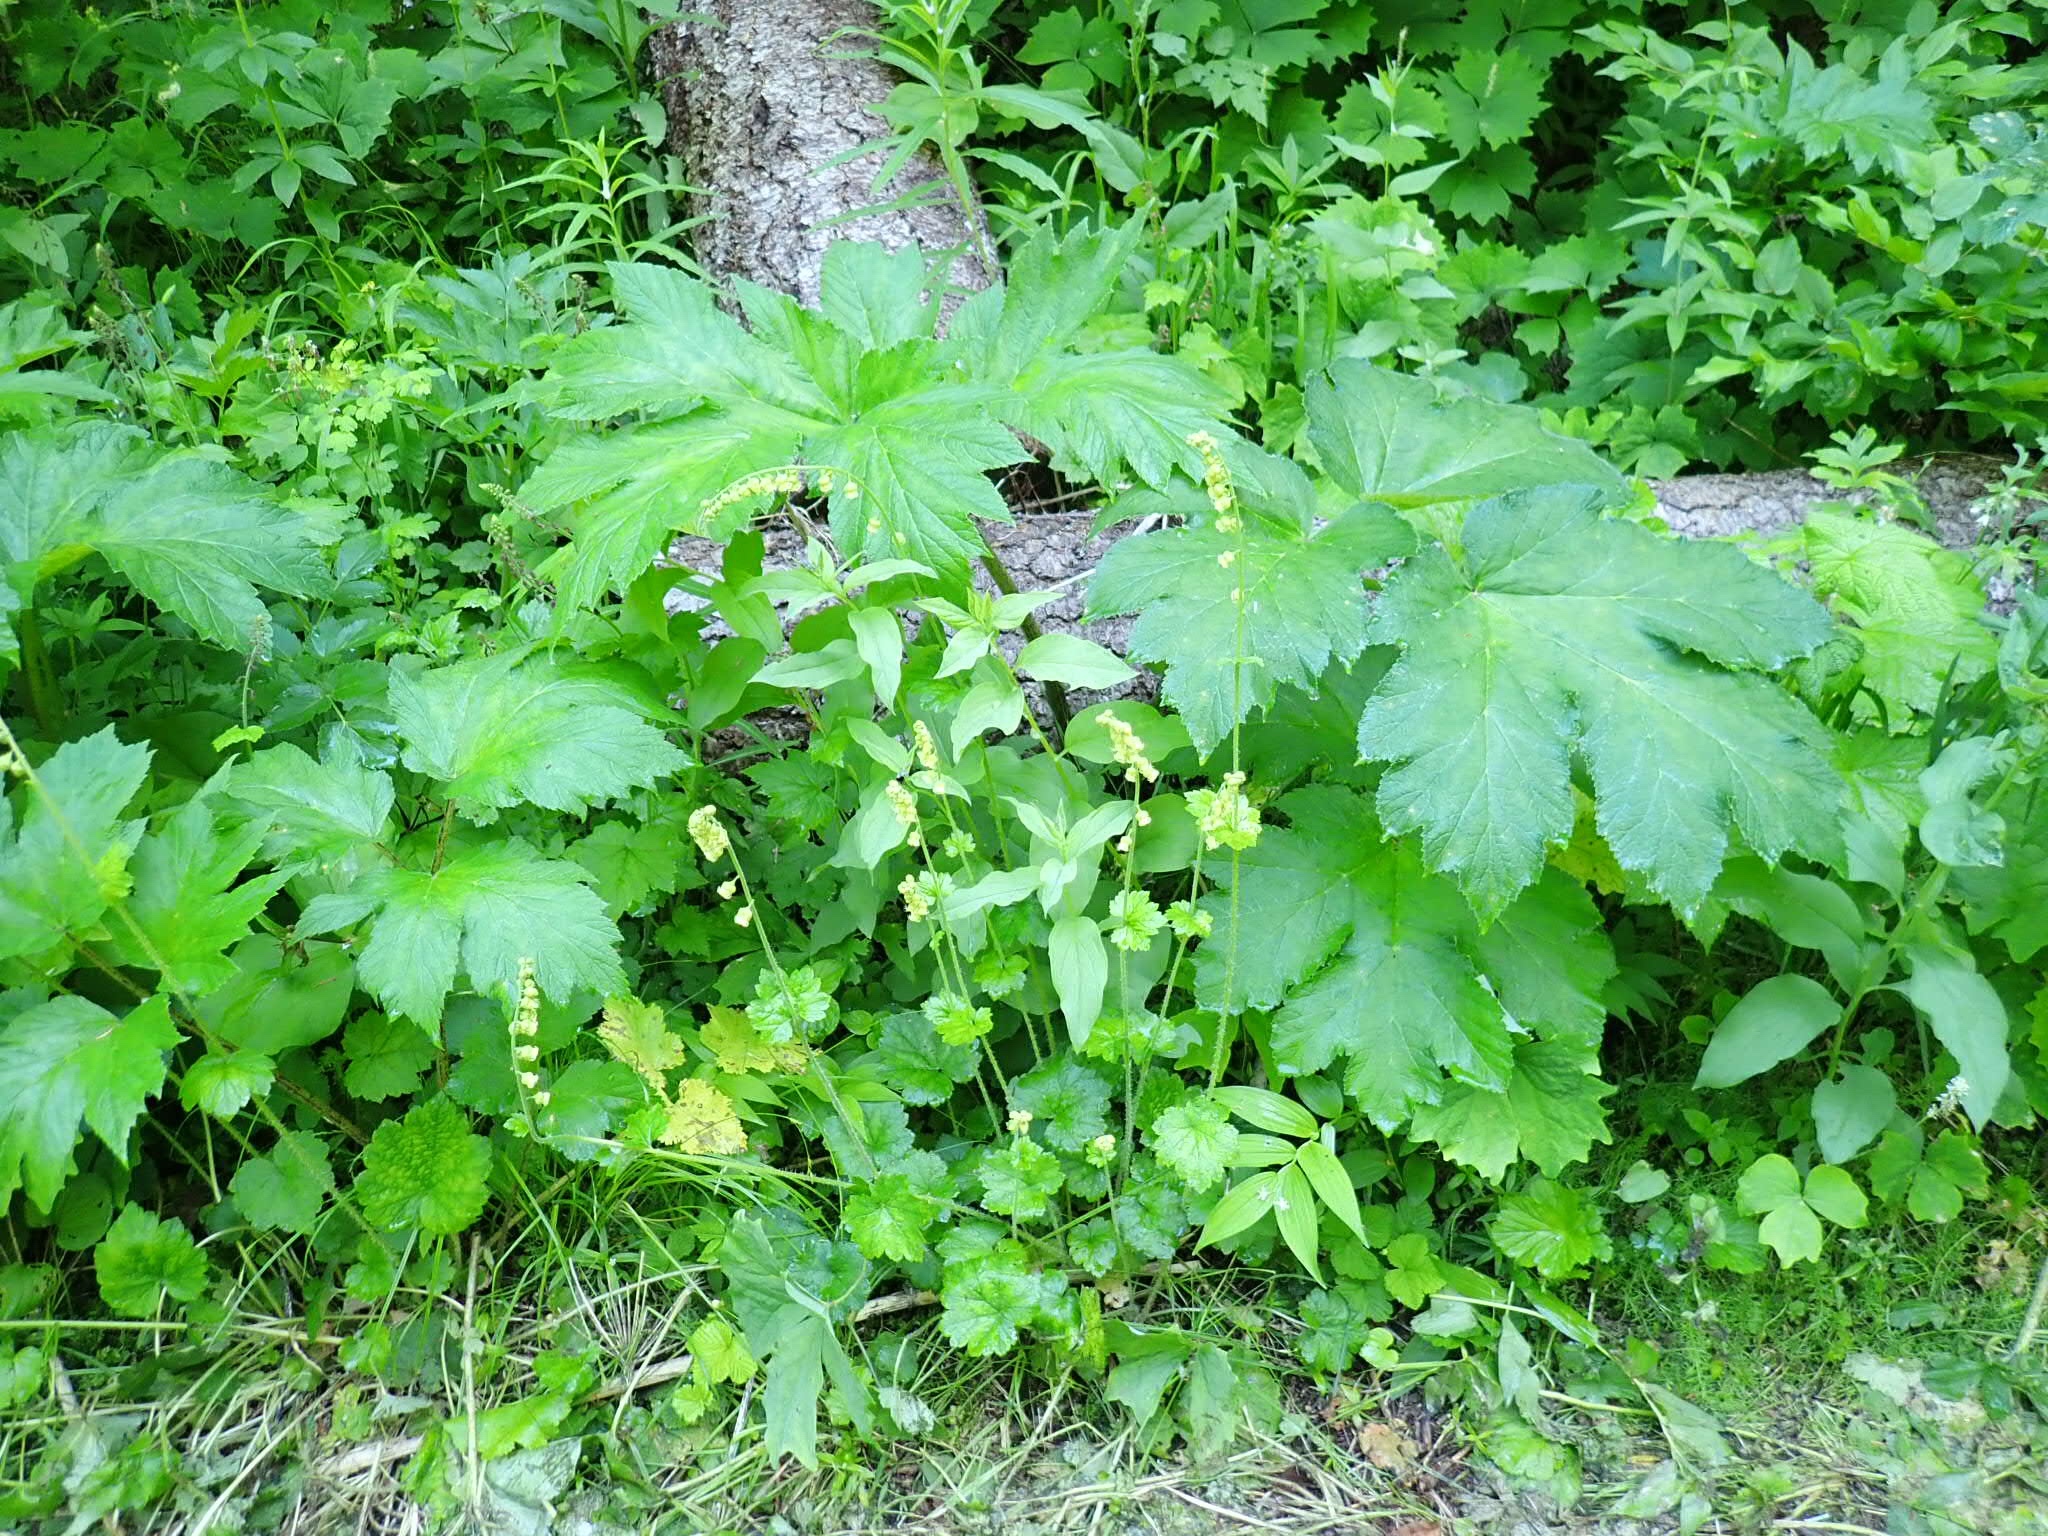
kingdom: Plantae
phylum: Tracheophyta
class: Magnoliopsida
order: Saxifragales
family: Saxifragaceae
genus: Tellima
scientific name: Tellima grandiflora
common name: Fringecups
